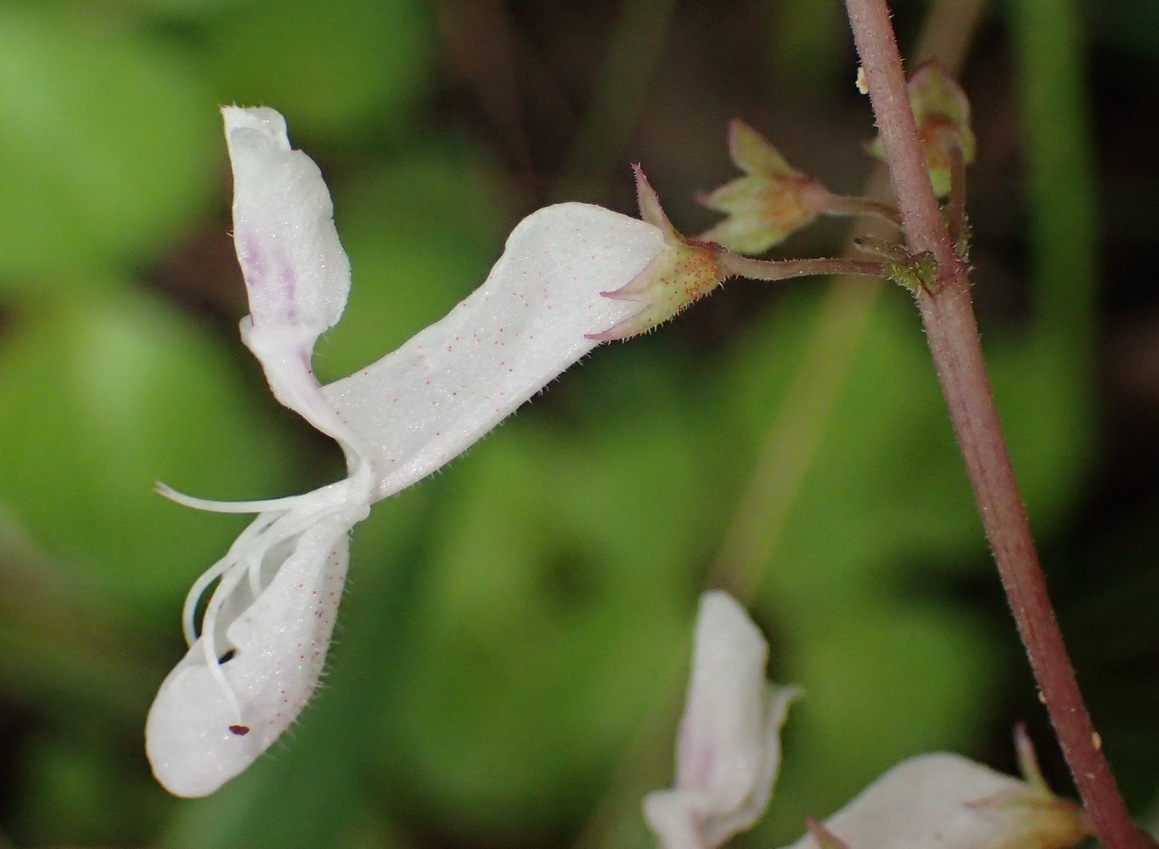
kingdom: Plantae
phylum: Tracheophyta
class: Magnoliopsida
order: Lamiales
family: Lamiaceae
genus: Plectranthus
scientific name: Plectranthus verticillatus
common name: Whorled plectranthus
